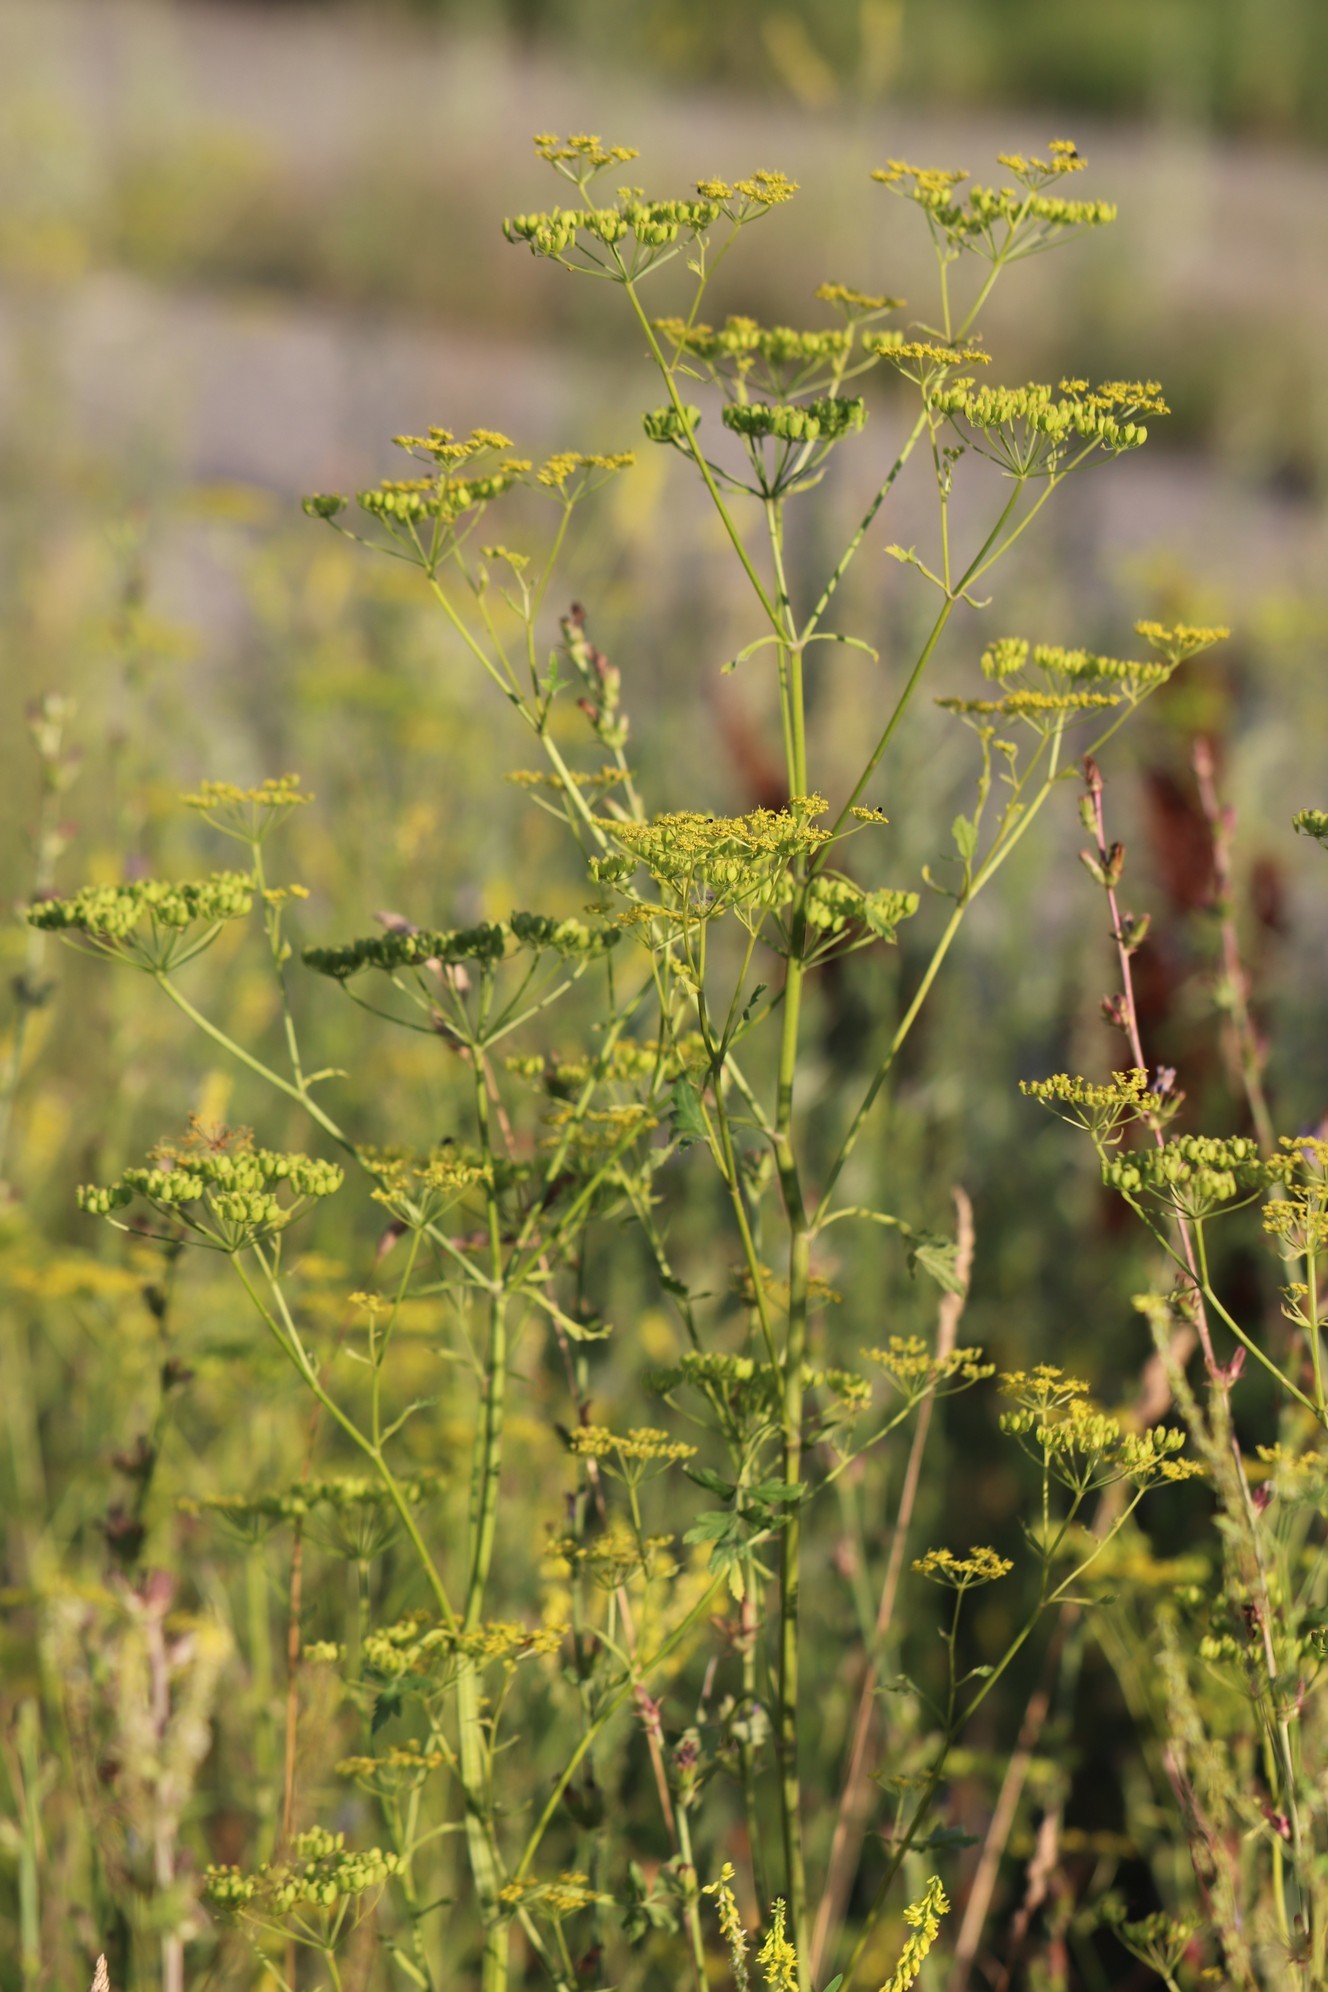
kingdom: Plantae
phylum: Tracheophyta
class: Magnoliopsida
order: Apiales
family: Apiaceae
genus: Pastinaca
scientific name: Pastinaca sativa
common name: Wild parsnip
